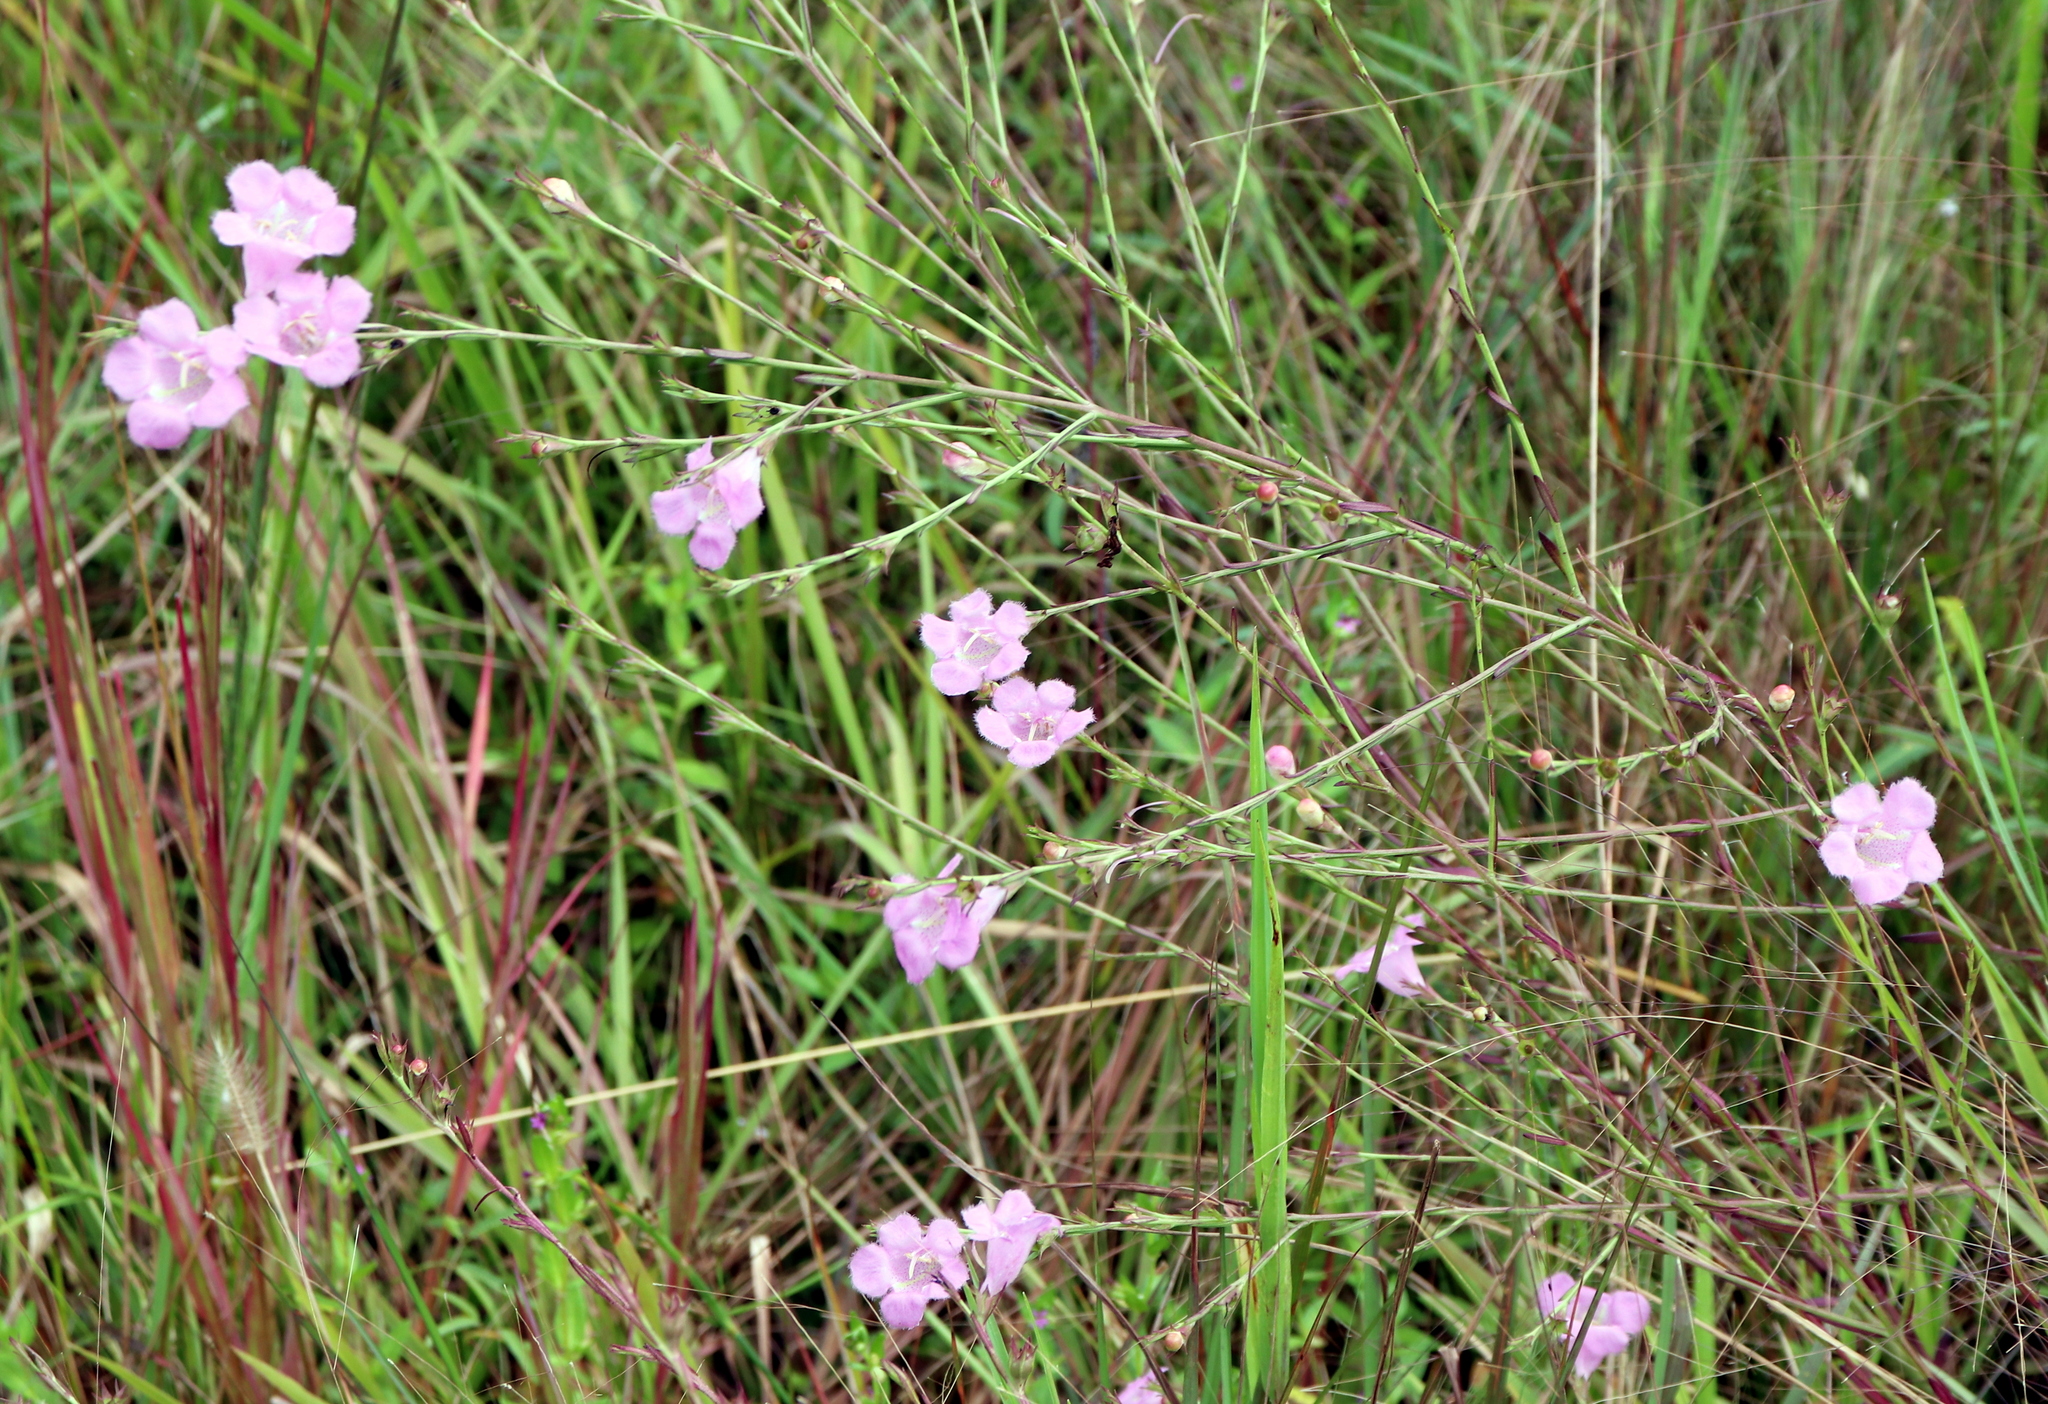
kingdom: Plantae
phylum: Tracheophyta
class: Magnoliopsida
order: Lamiales
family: Orobanchaceae
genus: Agalinis
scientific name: Agalinis heterophylla
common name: Prairie agalinis
